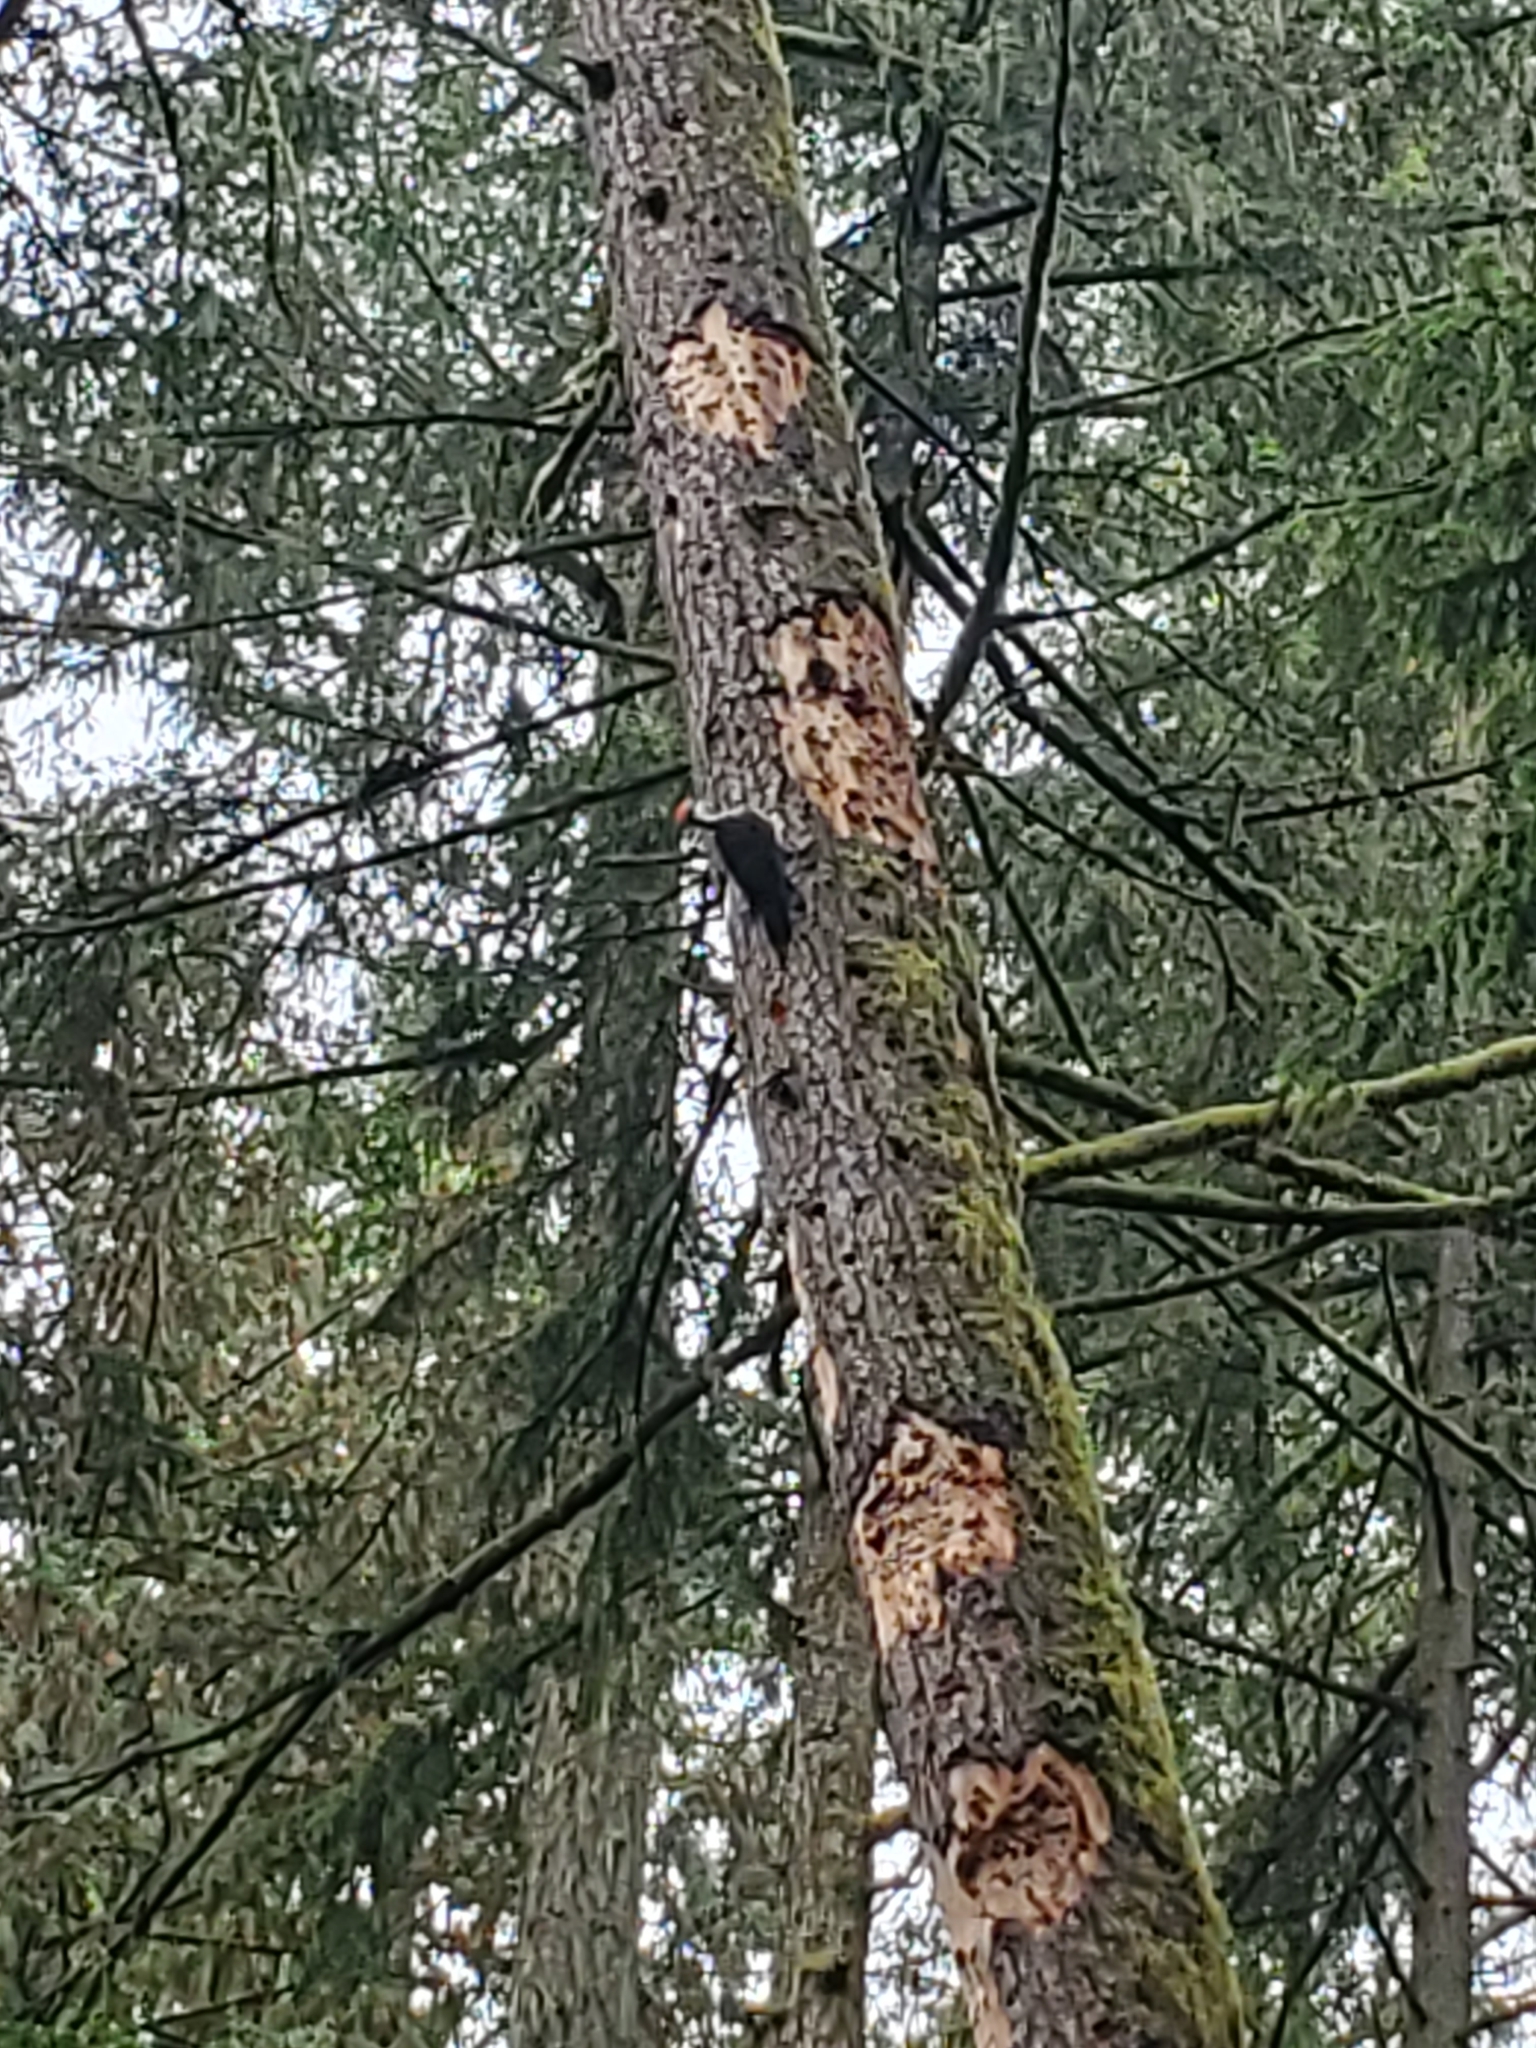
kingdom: Animalia
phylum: Chordata
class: Aves
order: Piciformes
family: Picidae
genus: Dryocopus
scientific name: Dryocopus pileatus
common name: Pileated woodpecker
